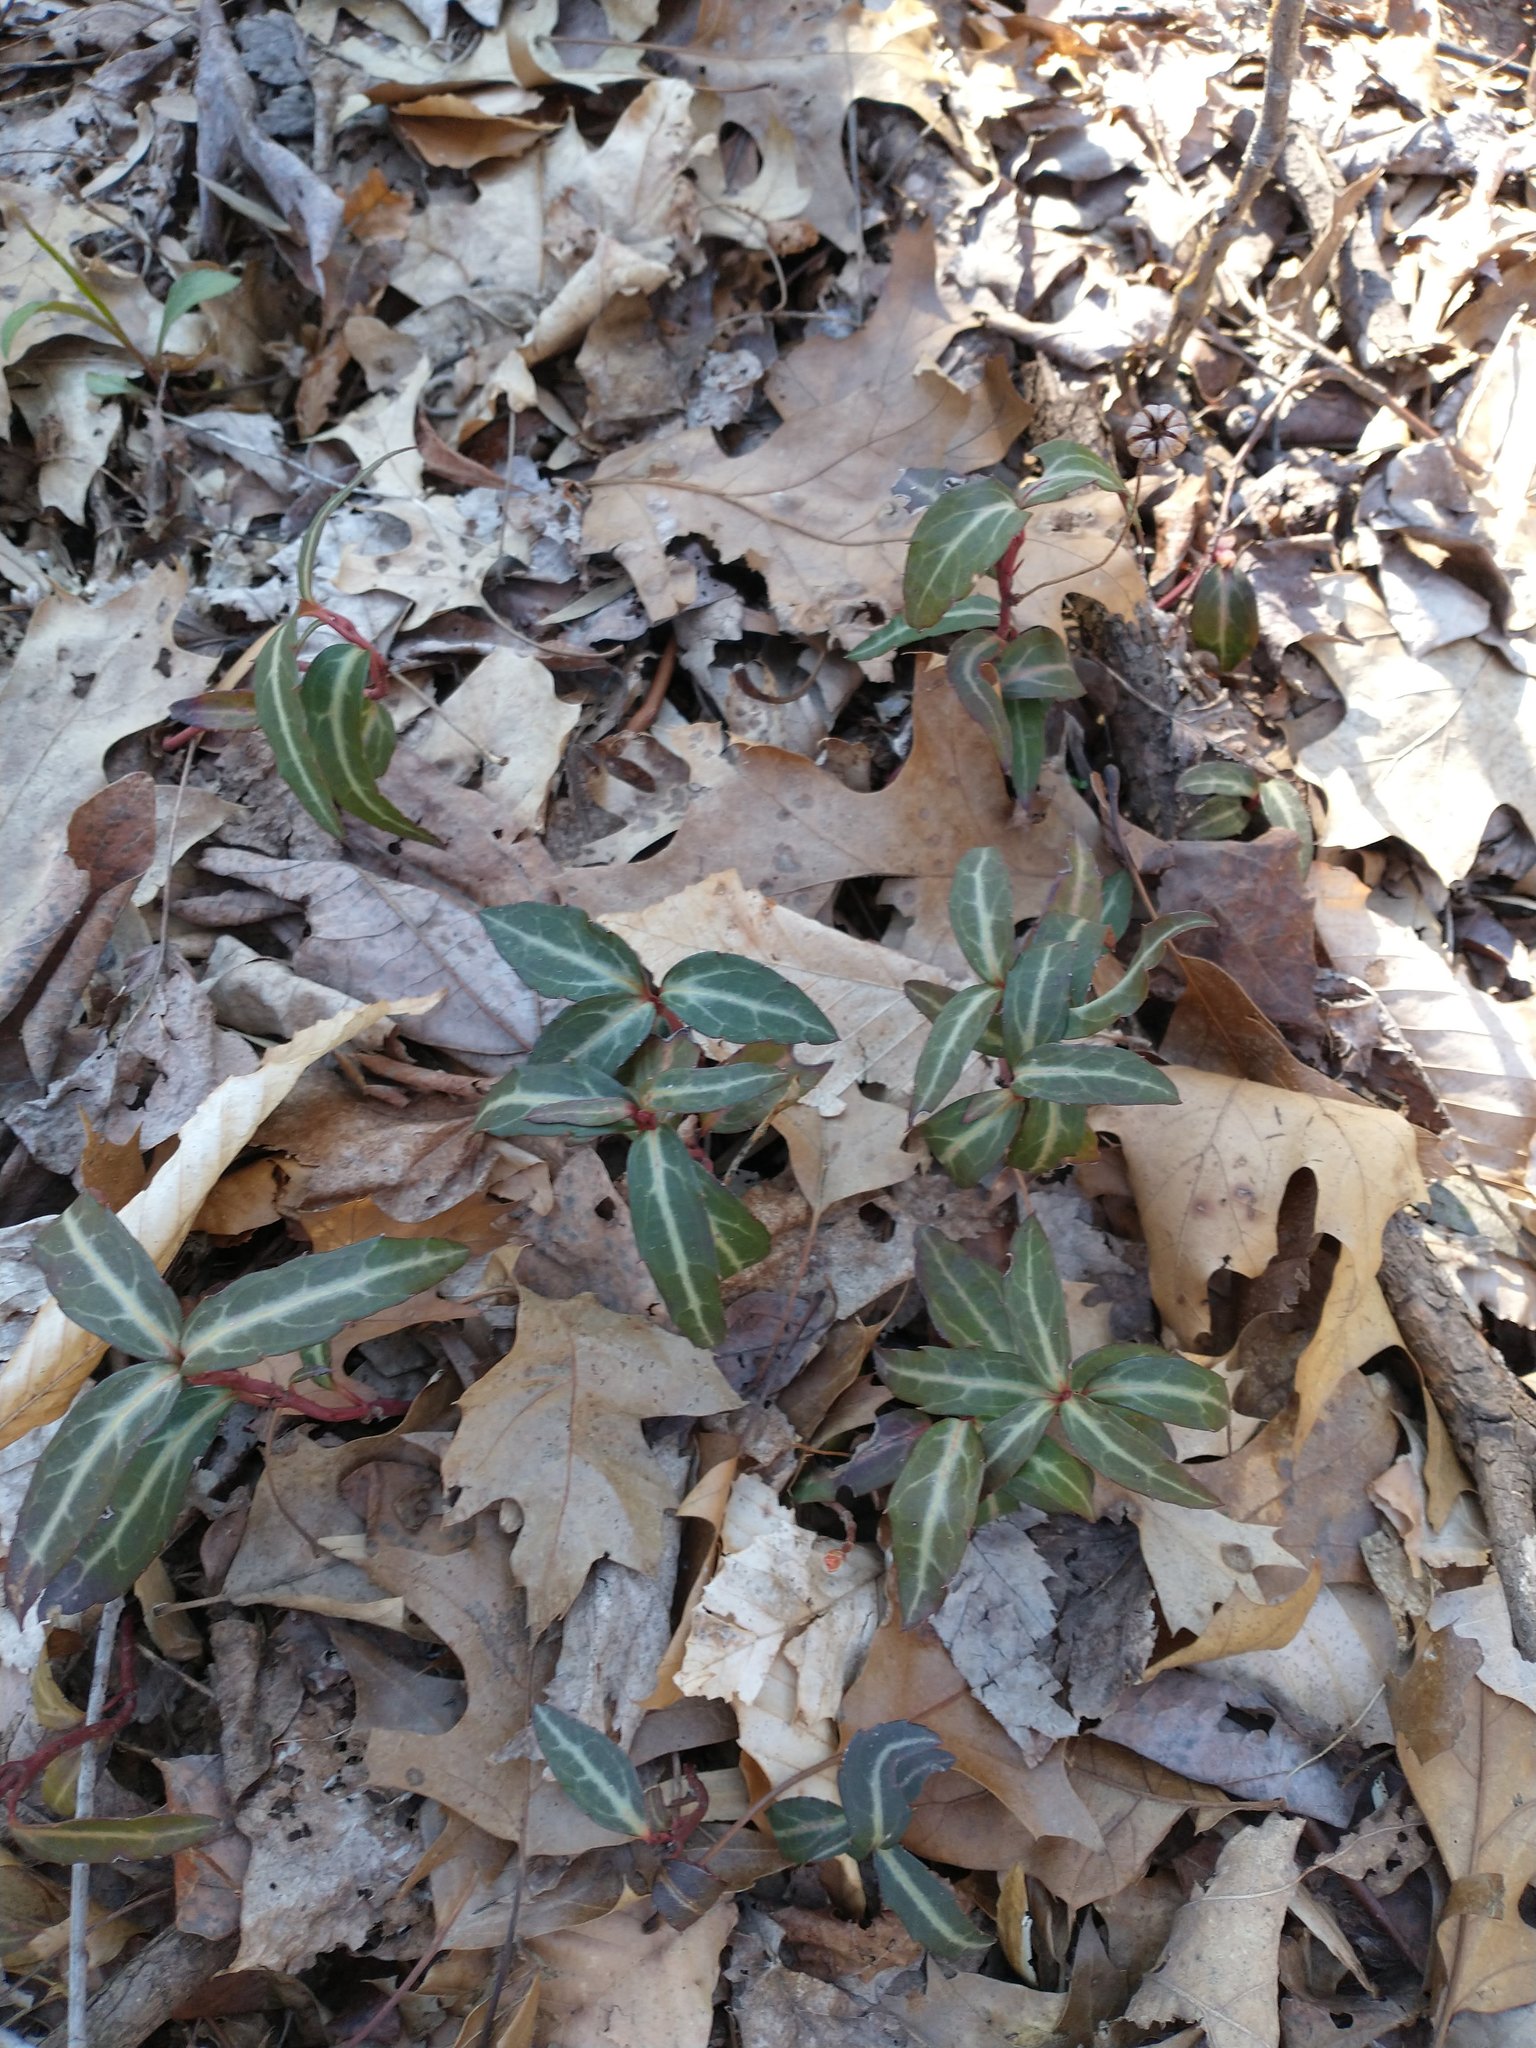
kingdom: Plantae
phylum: Tracheophyta
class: Magnoliopsida
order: Ericales
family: Ericaceae
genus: Chimaphila
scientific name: Chimaphila maculata
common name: Spotted pipsissewa
